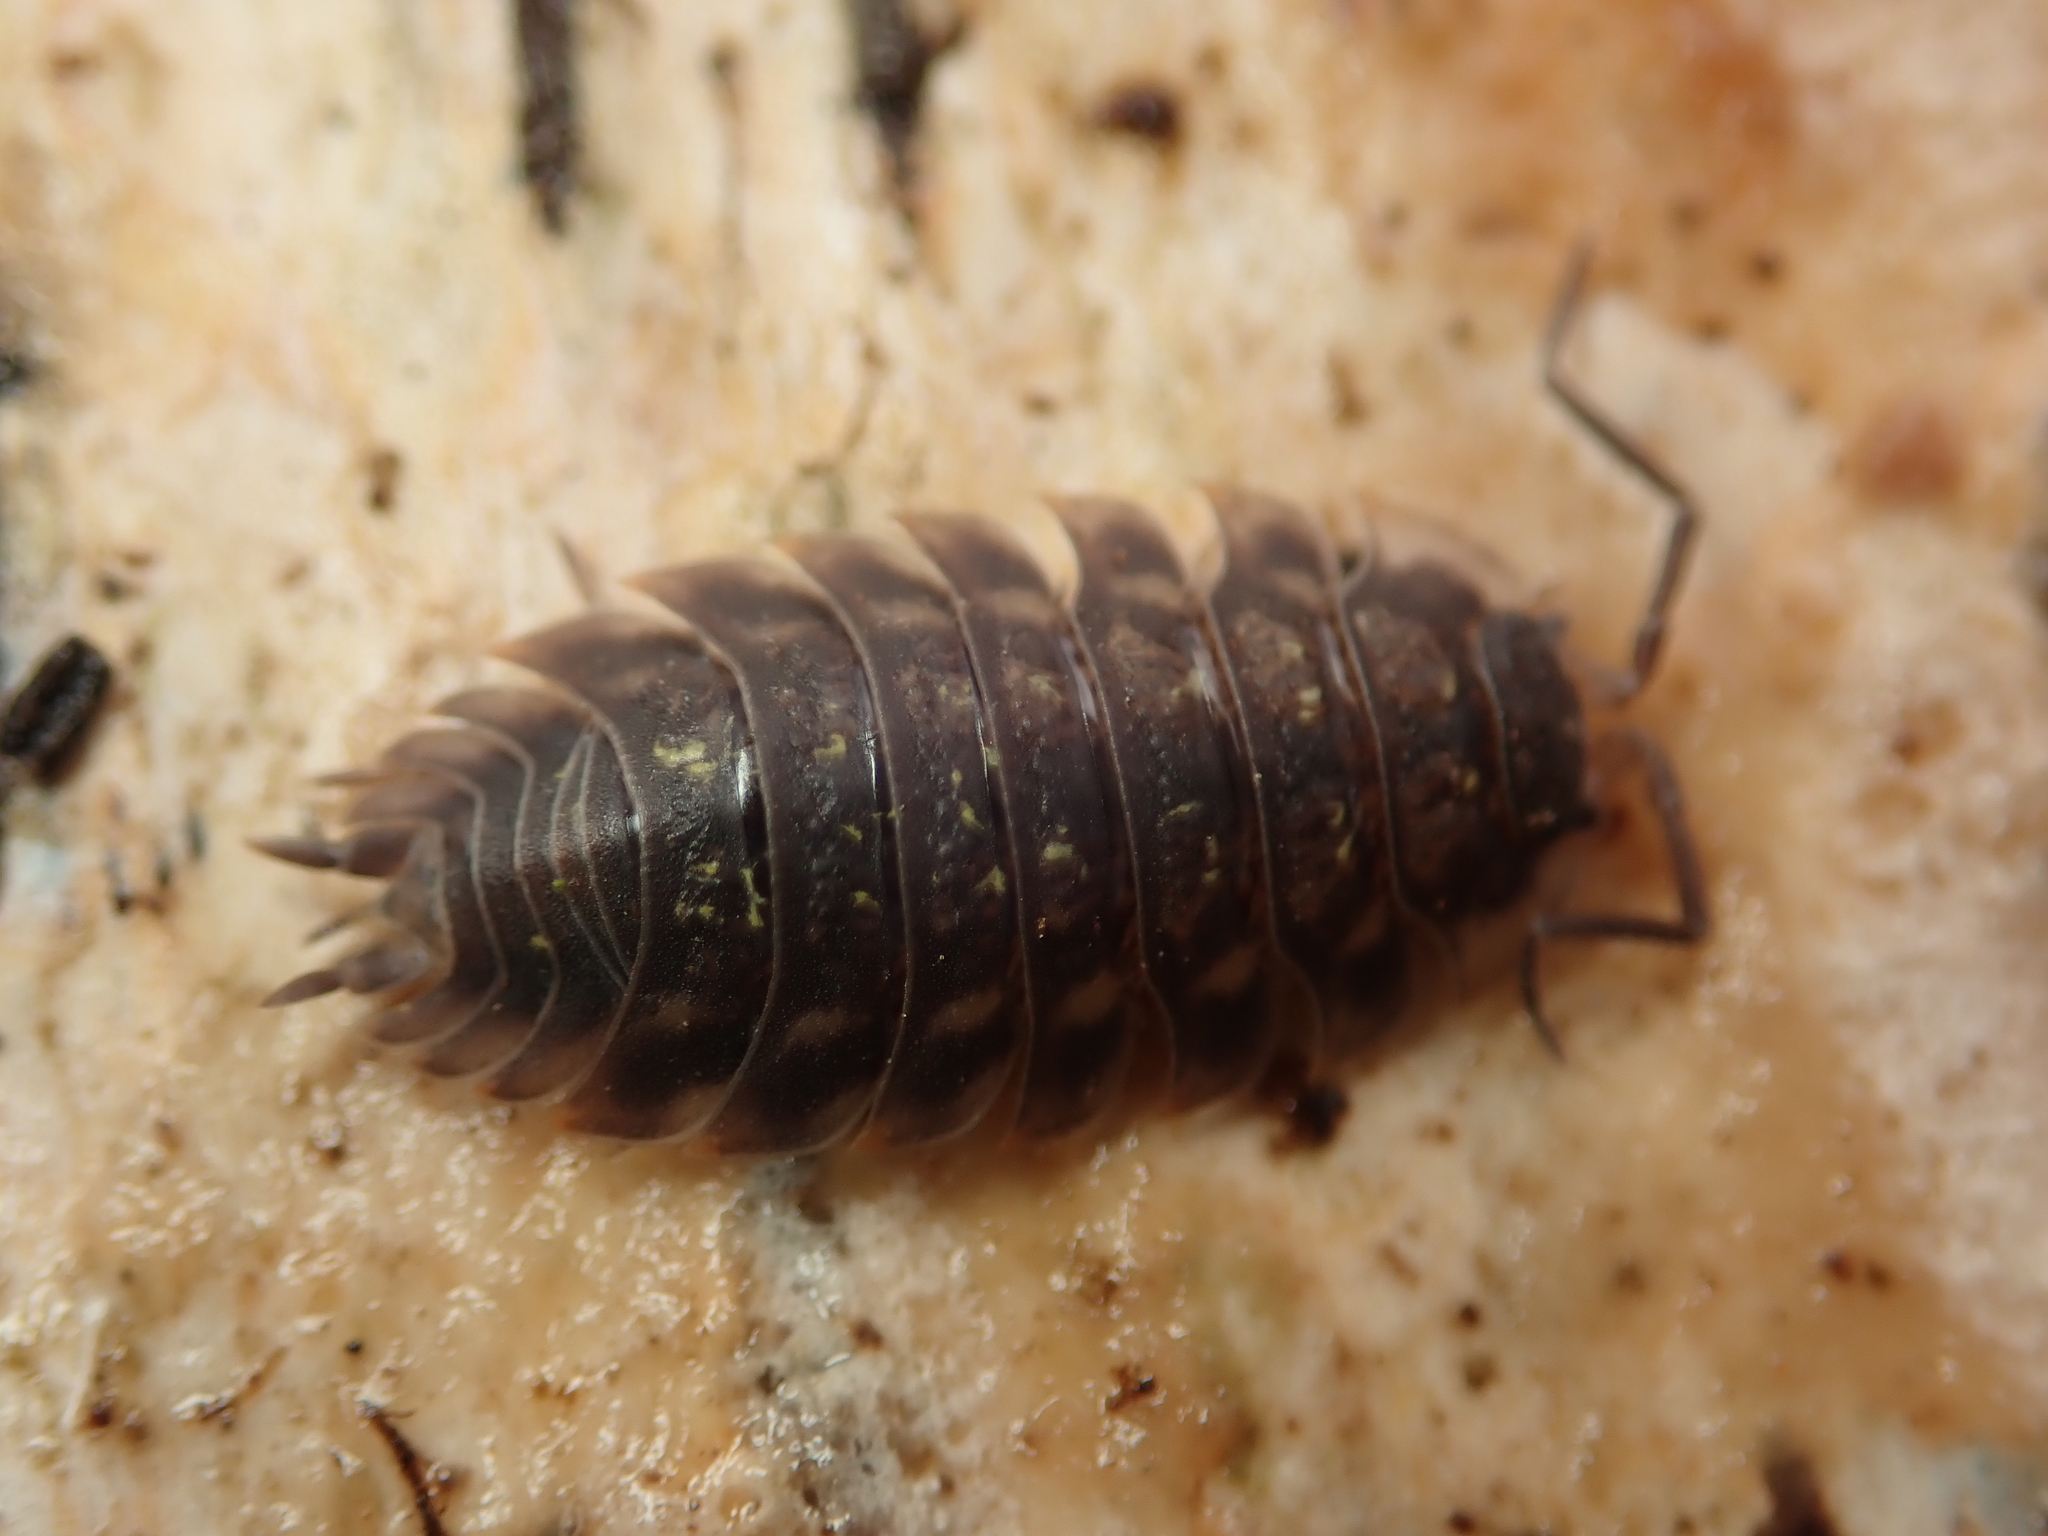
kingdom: Animalia
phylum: Arthropoda
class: Malacostraca
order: Isopoda
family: Oniscidae
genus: Oniscus
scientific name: Oniscus asellus
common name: Common shiny woodlouse
